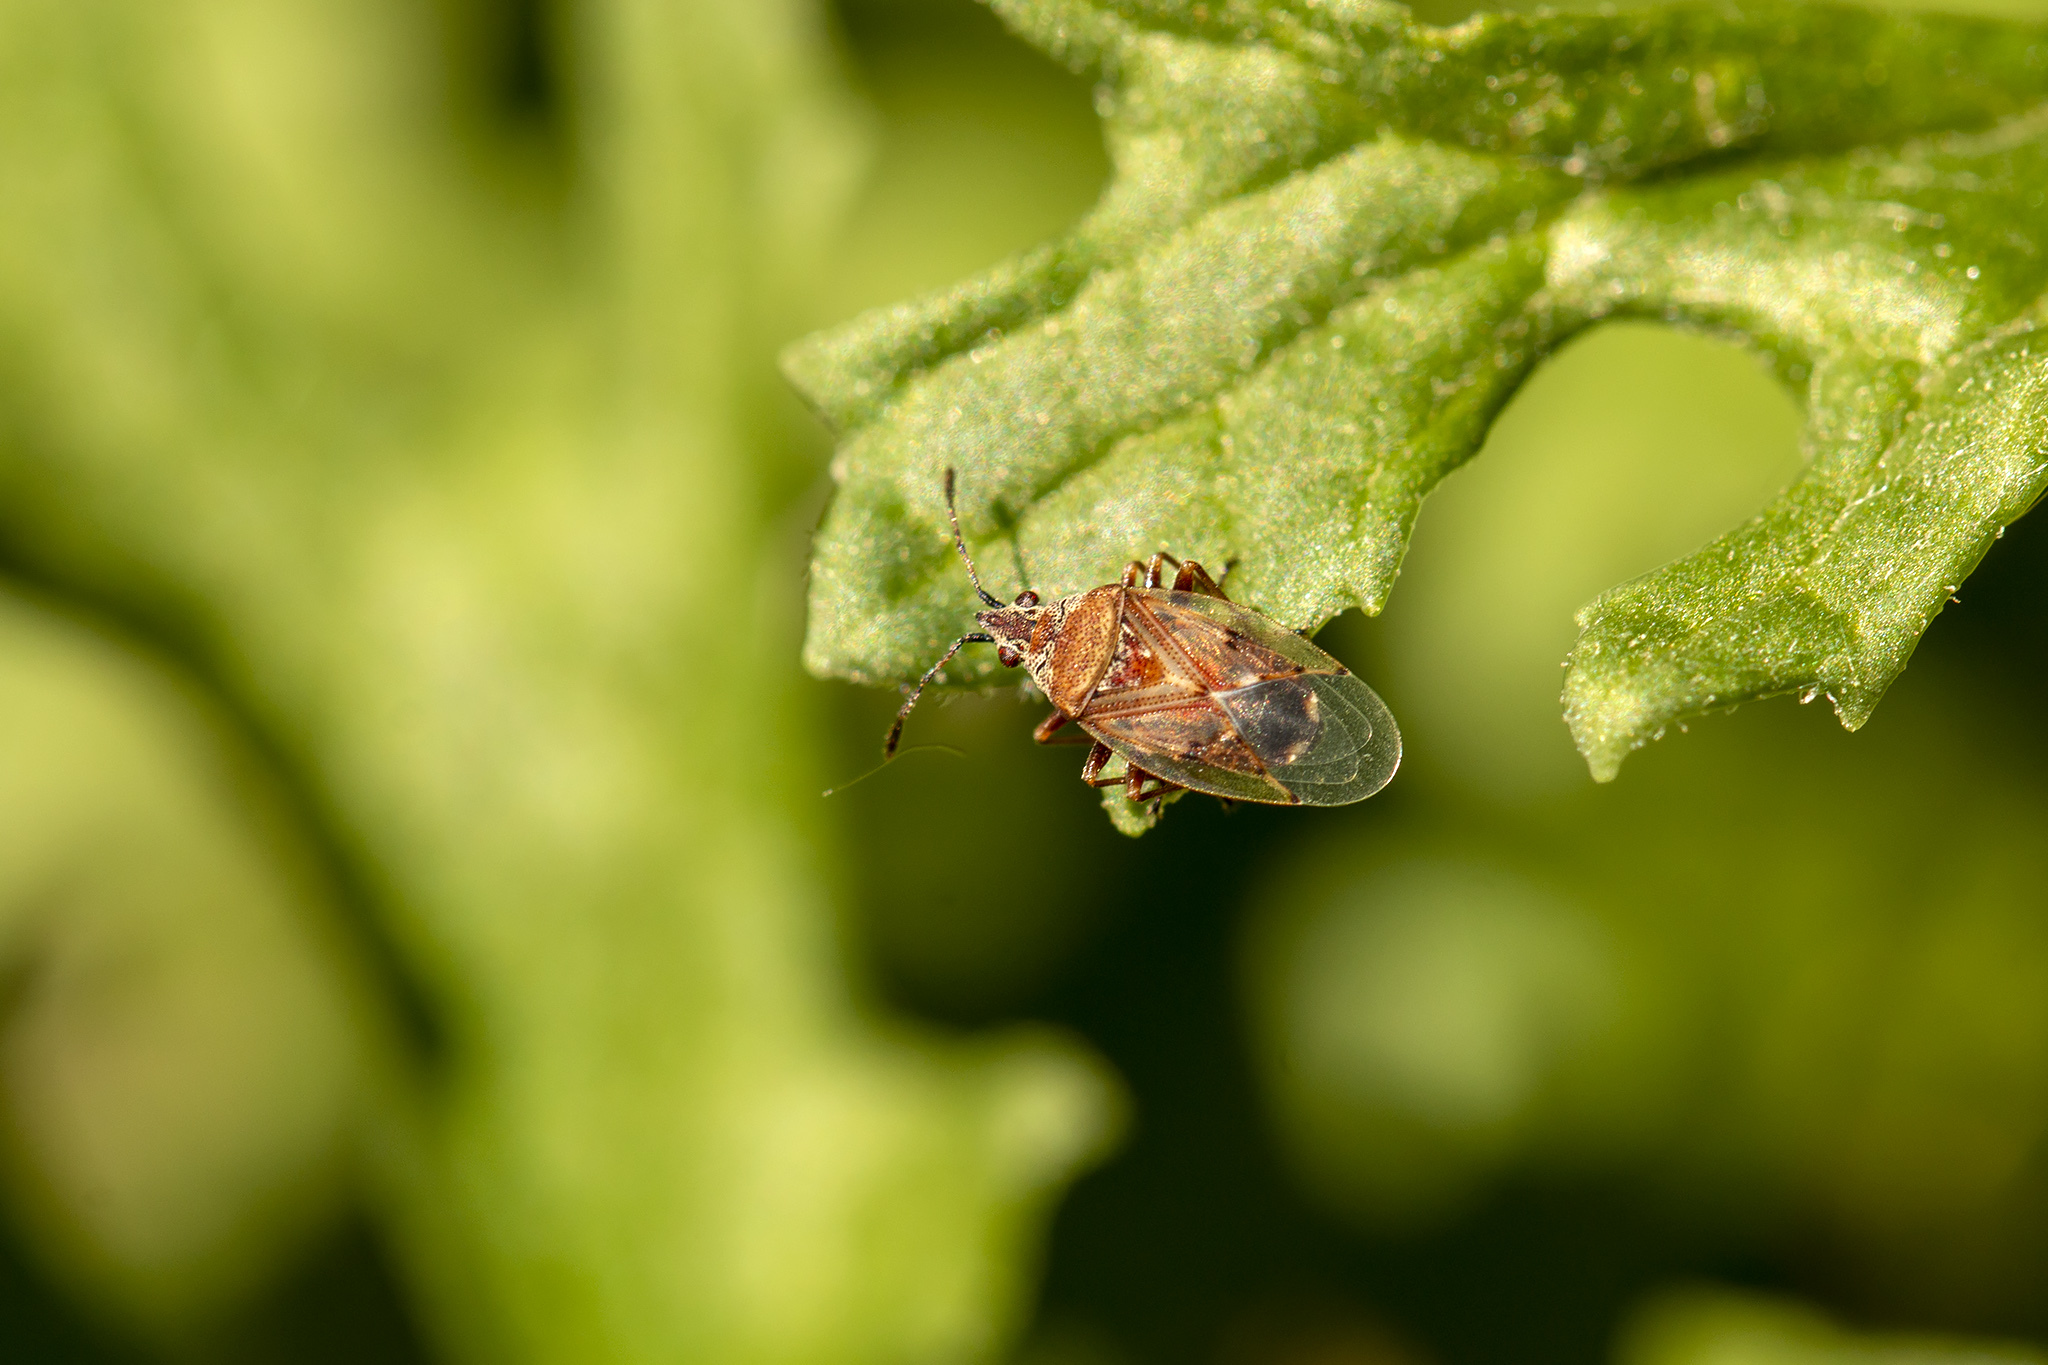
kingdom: Animalia
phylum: Arthropoda
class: Insecta
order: Hemiptera
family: Lygaeidae
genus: Kleidocerys
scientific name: Kleidocerys resedae
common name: Birch catkin bug
